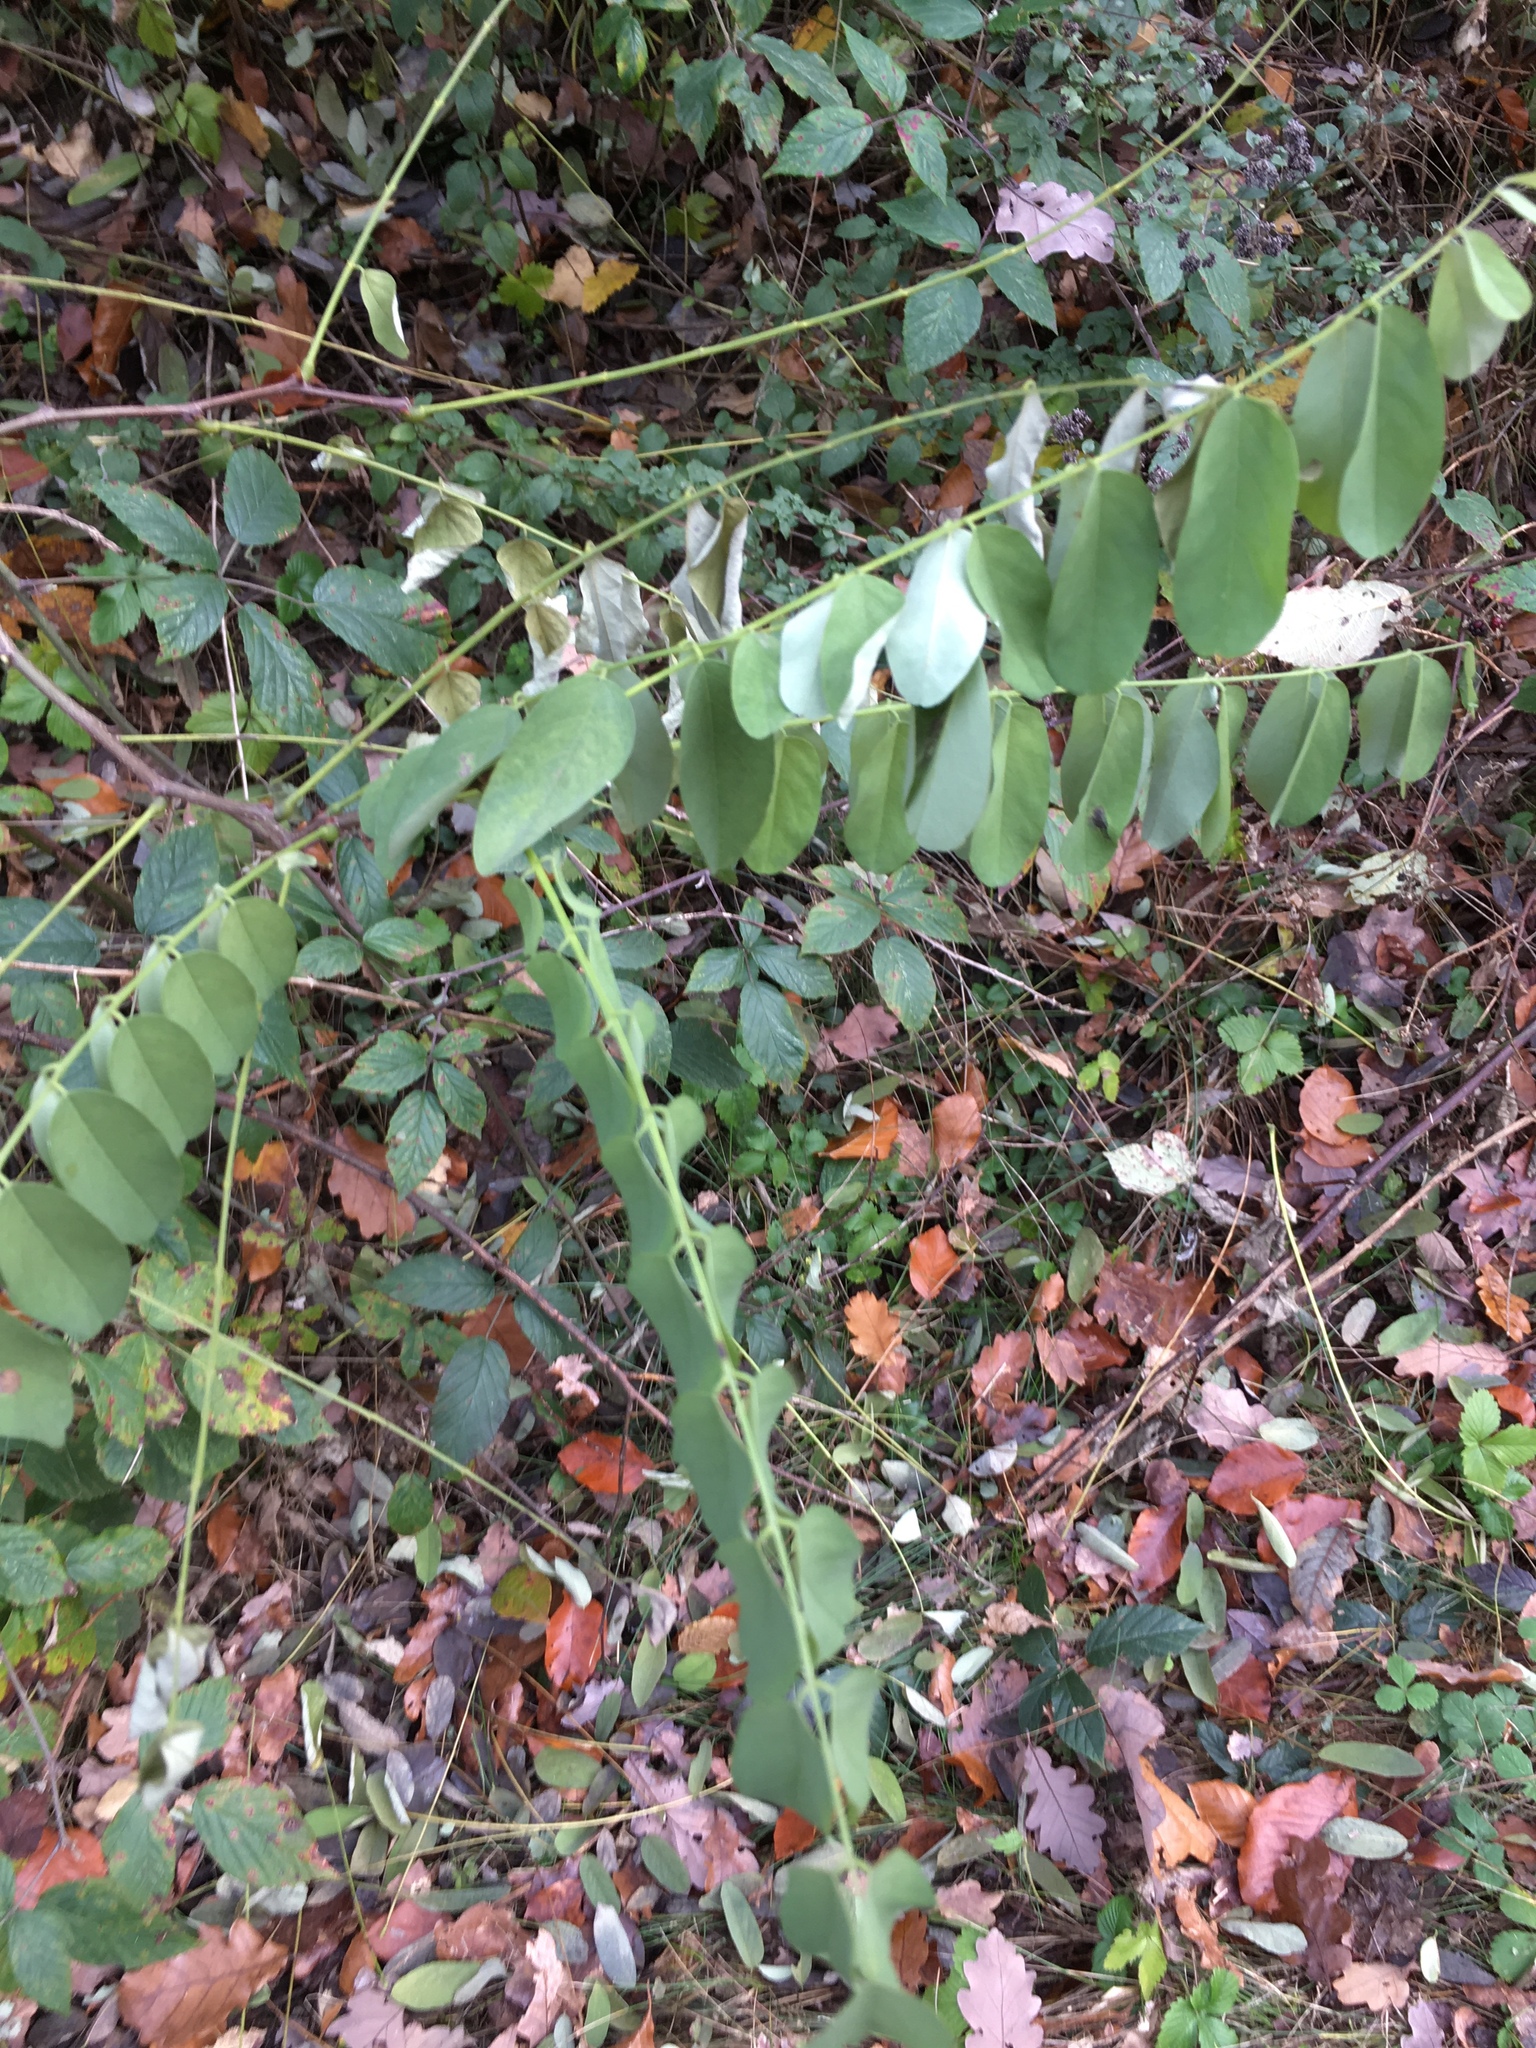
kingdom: Plantae
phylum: Tracheophyta
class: Magnoliopsida
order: Fabales
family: Fabaceae
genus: Robinia
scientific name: Robinia pseudoacacia
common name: Black locust
